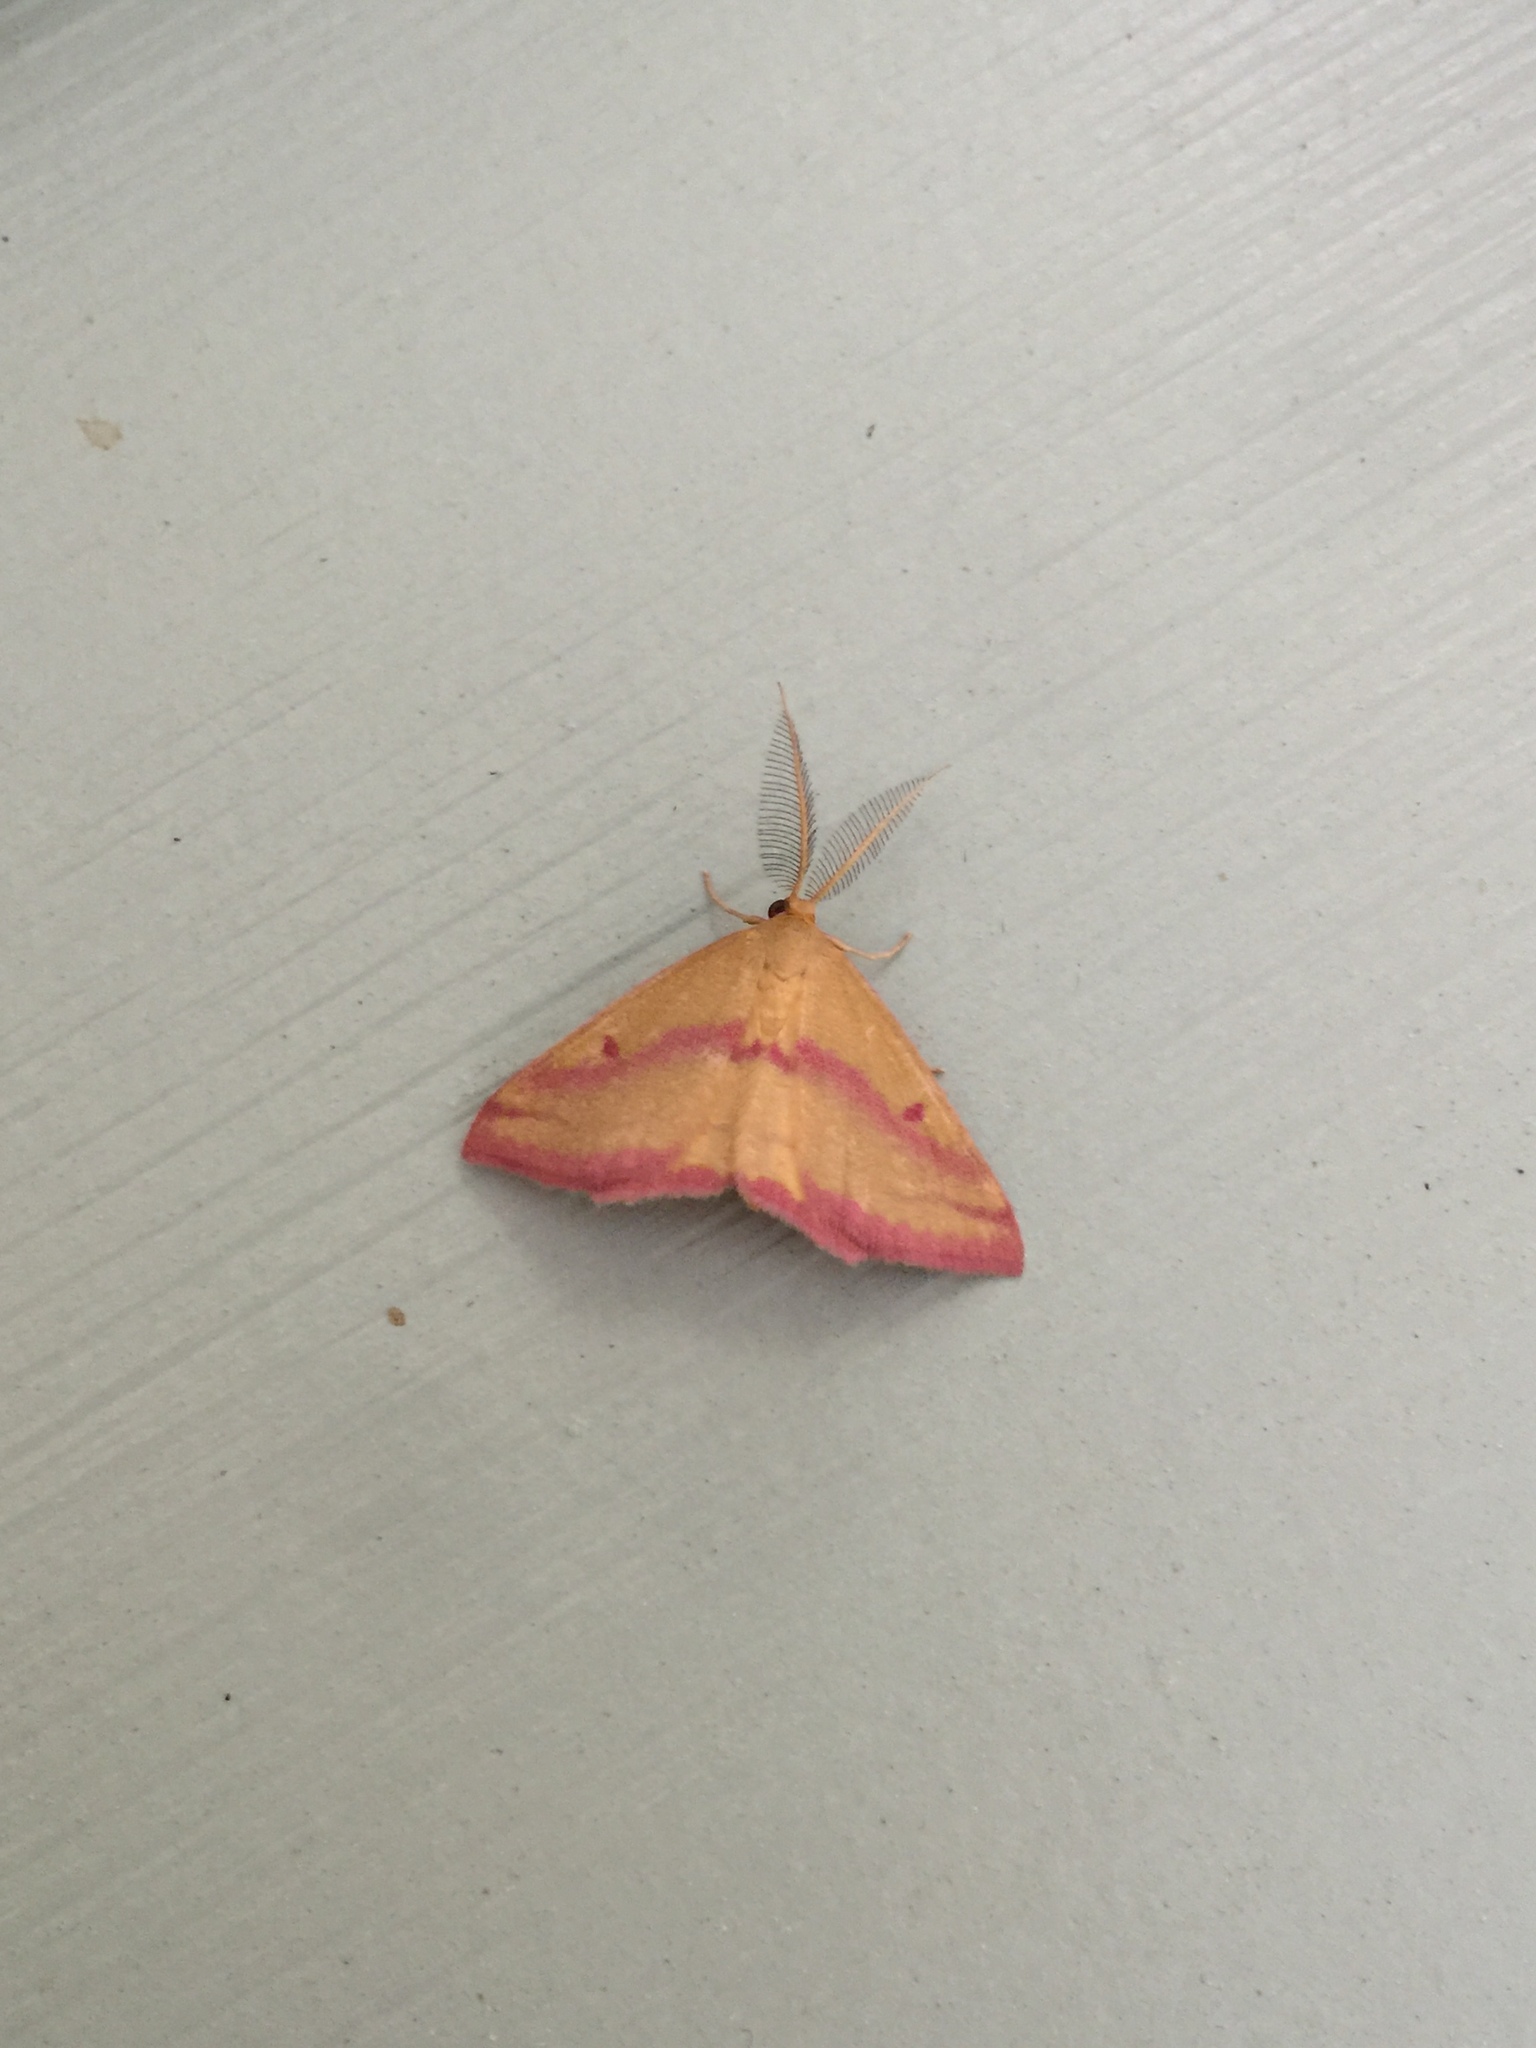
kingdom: Animalia
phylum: Arthropoda
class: Insecta
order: Lepidoptera
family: Geometridae
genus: Haematopis
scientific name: Haematopis grataria
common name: Chickweed geometer
